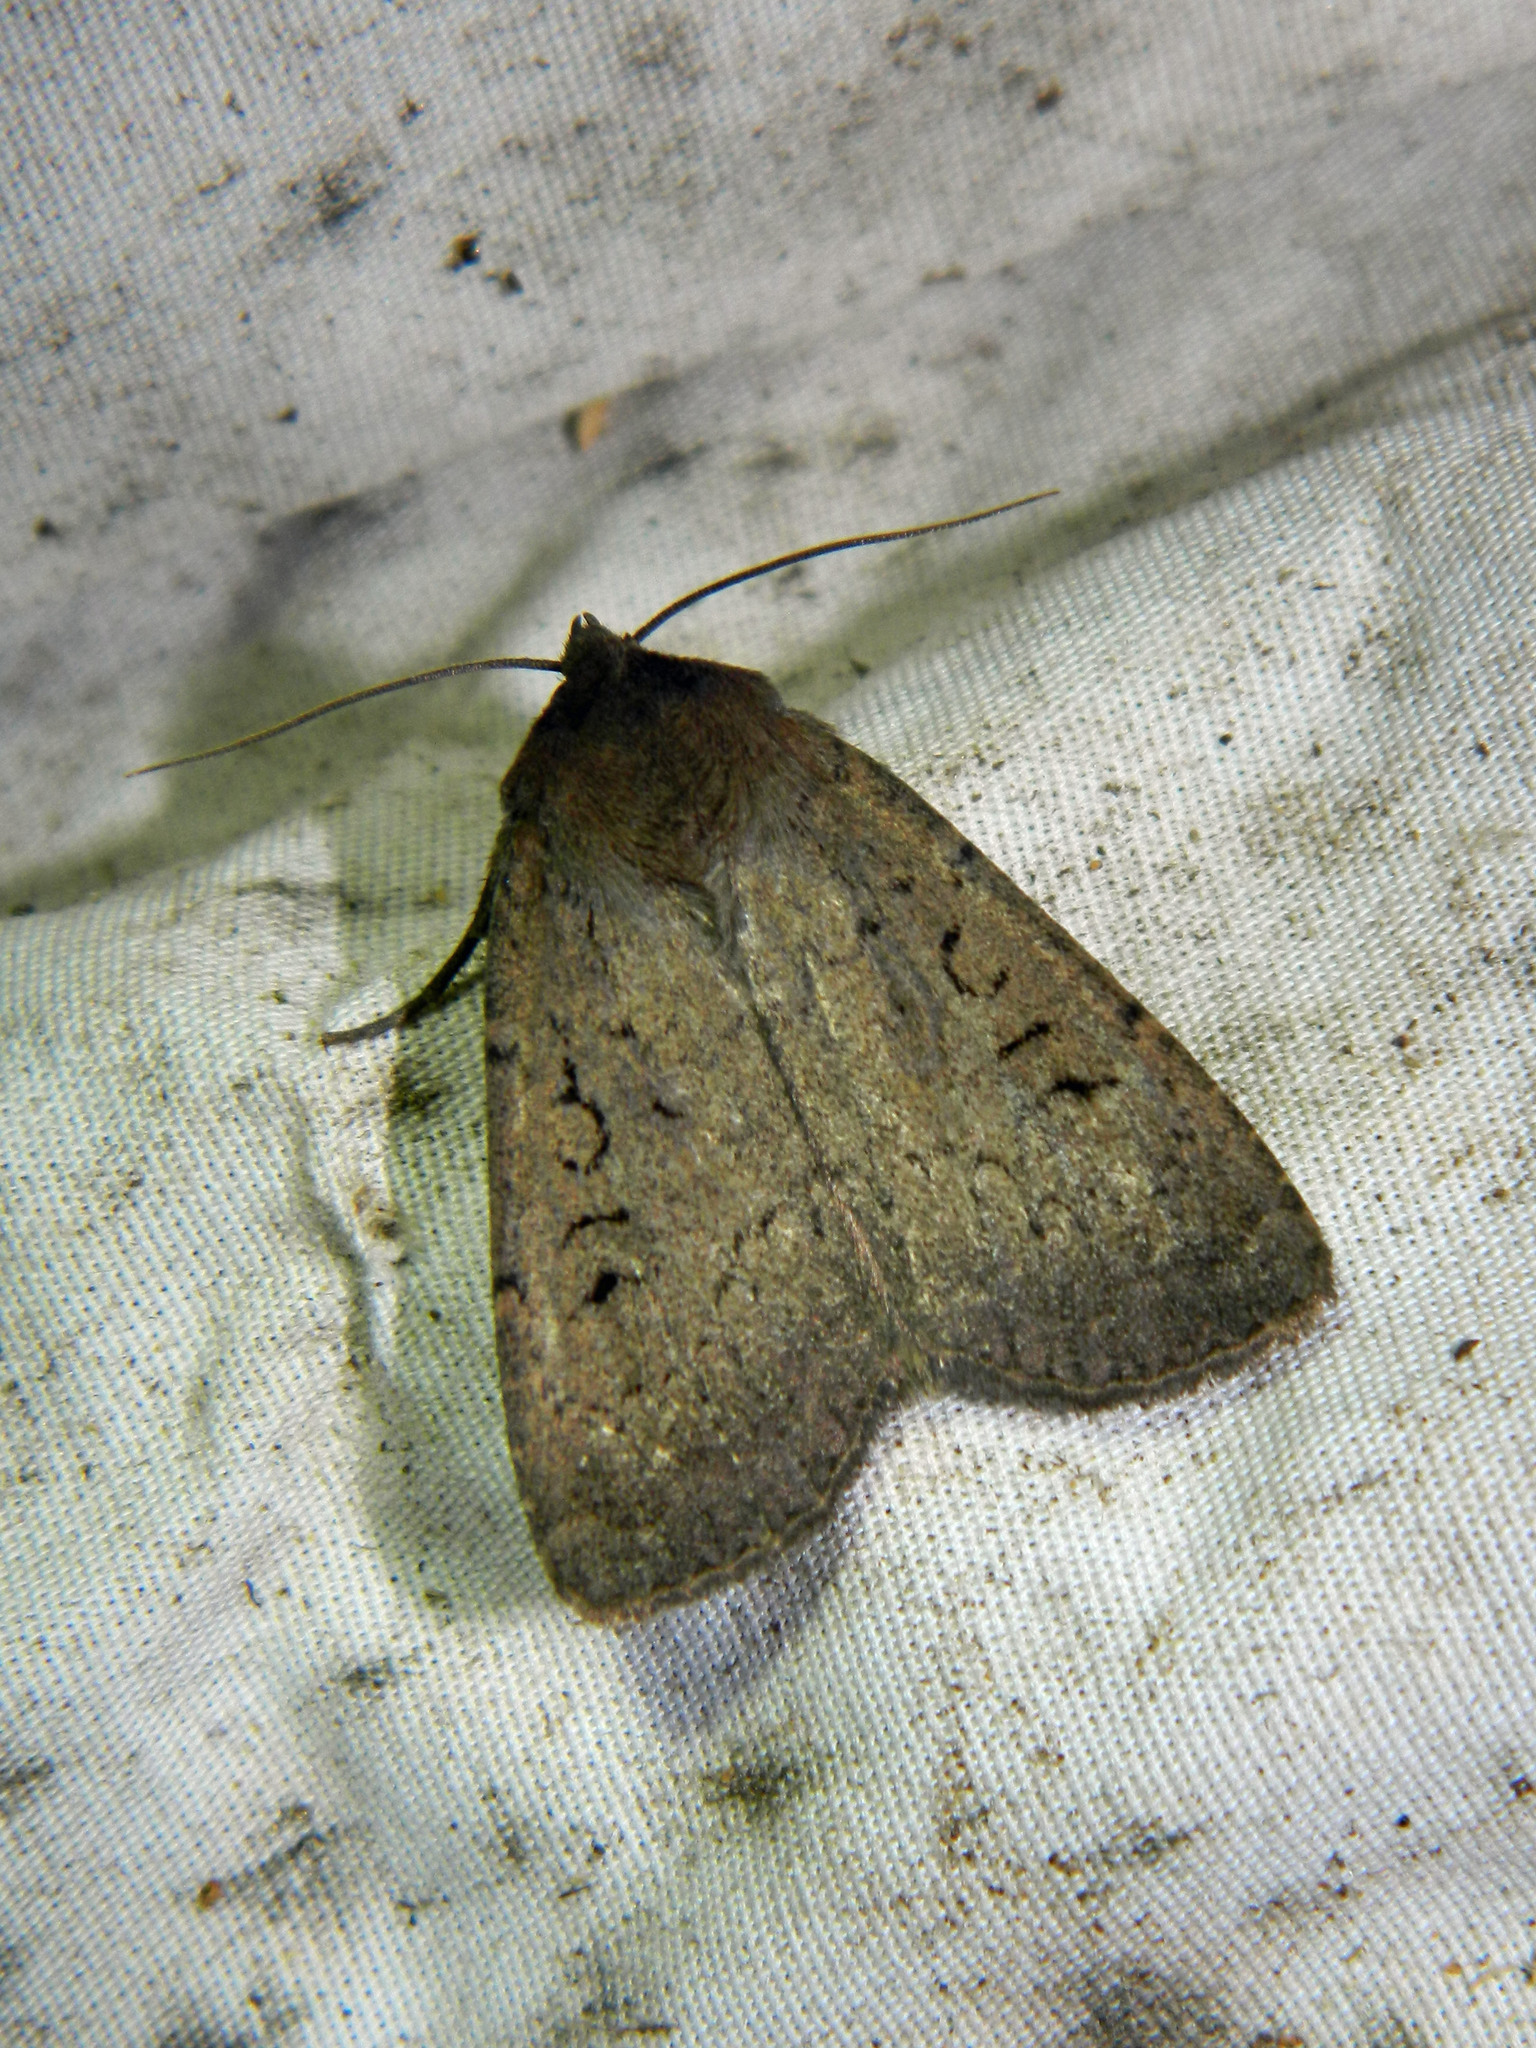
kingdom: Animalia
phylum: Arthropoda
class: Insecta
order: Lepidoptera
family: Noctuidae
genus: Graphiphora
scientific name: Graphiphora augur
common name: Double dart
